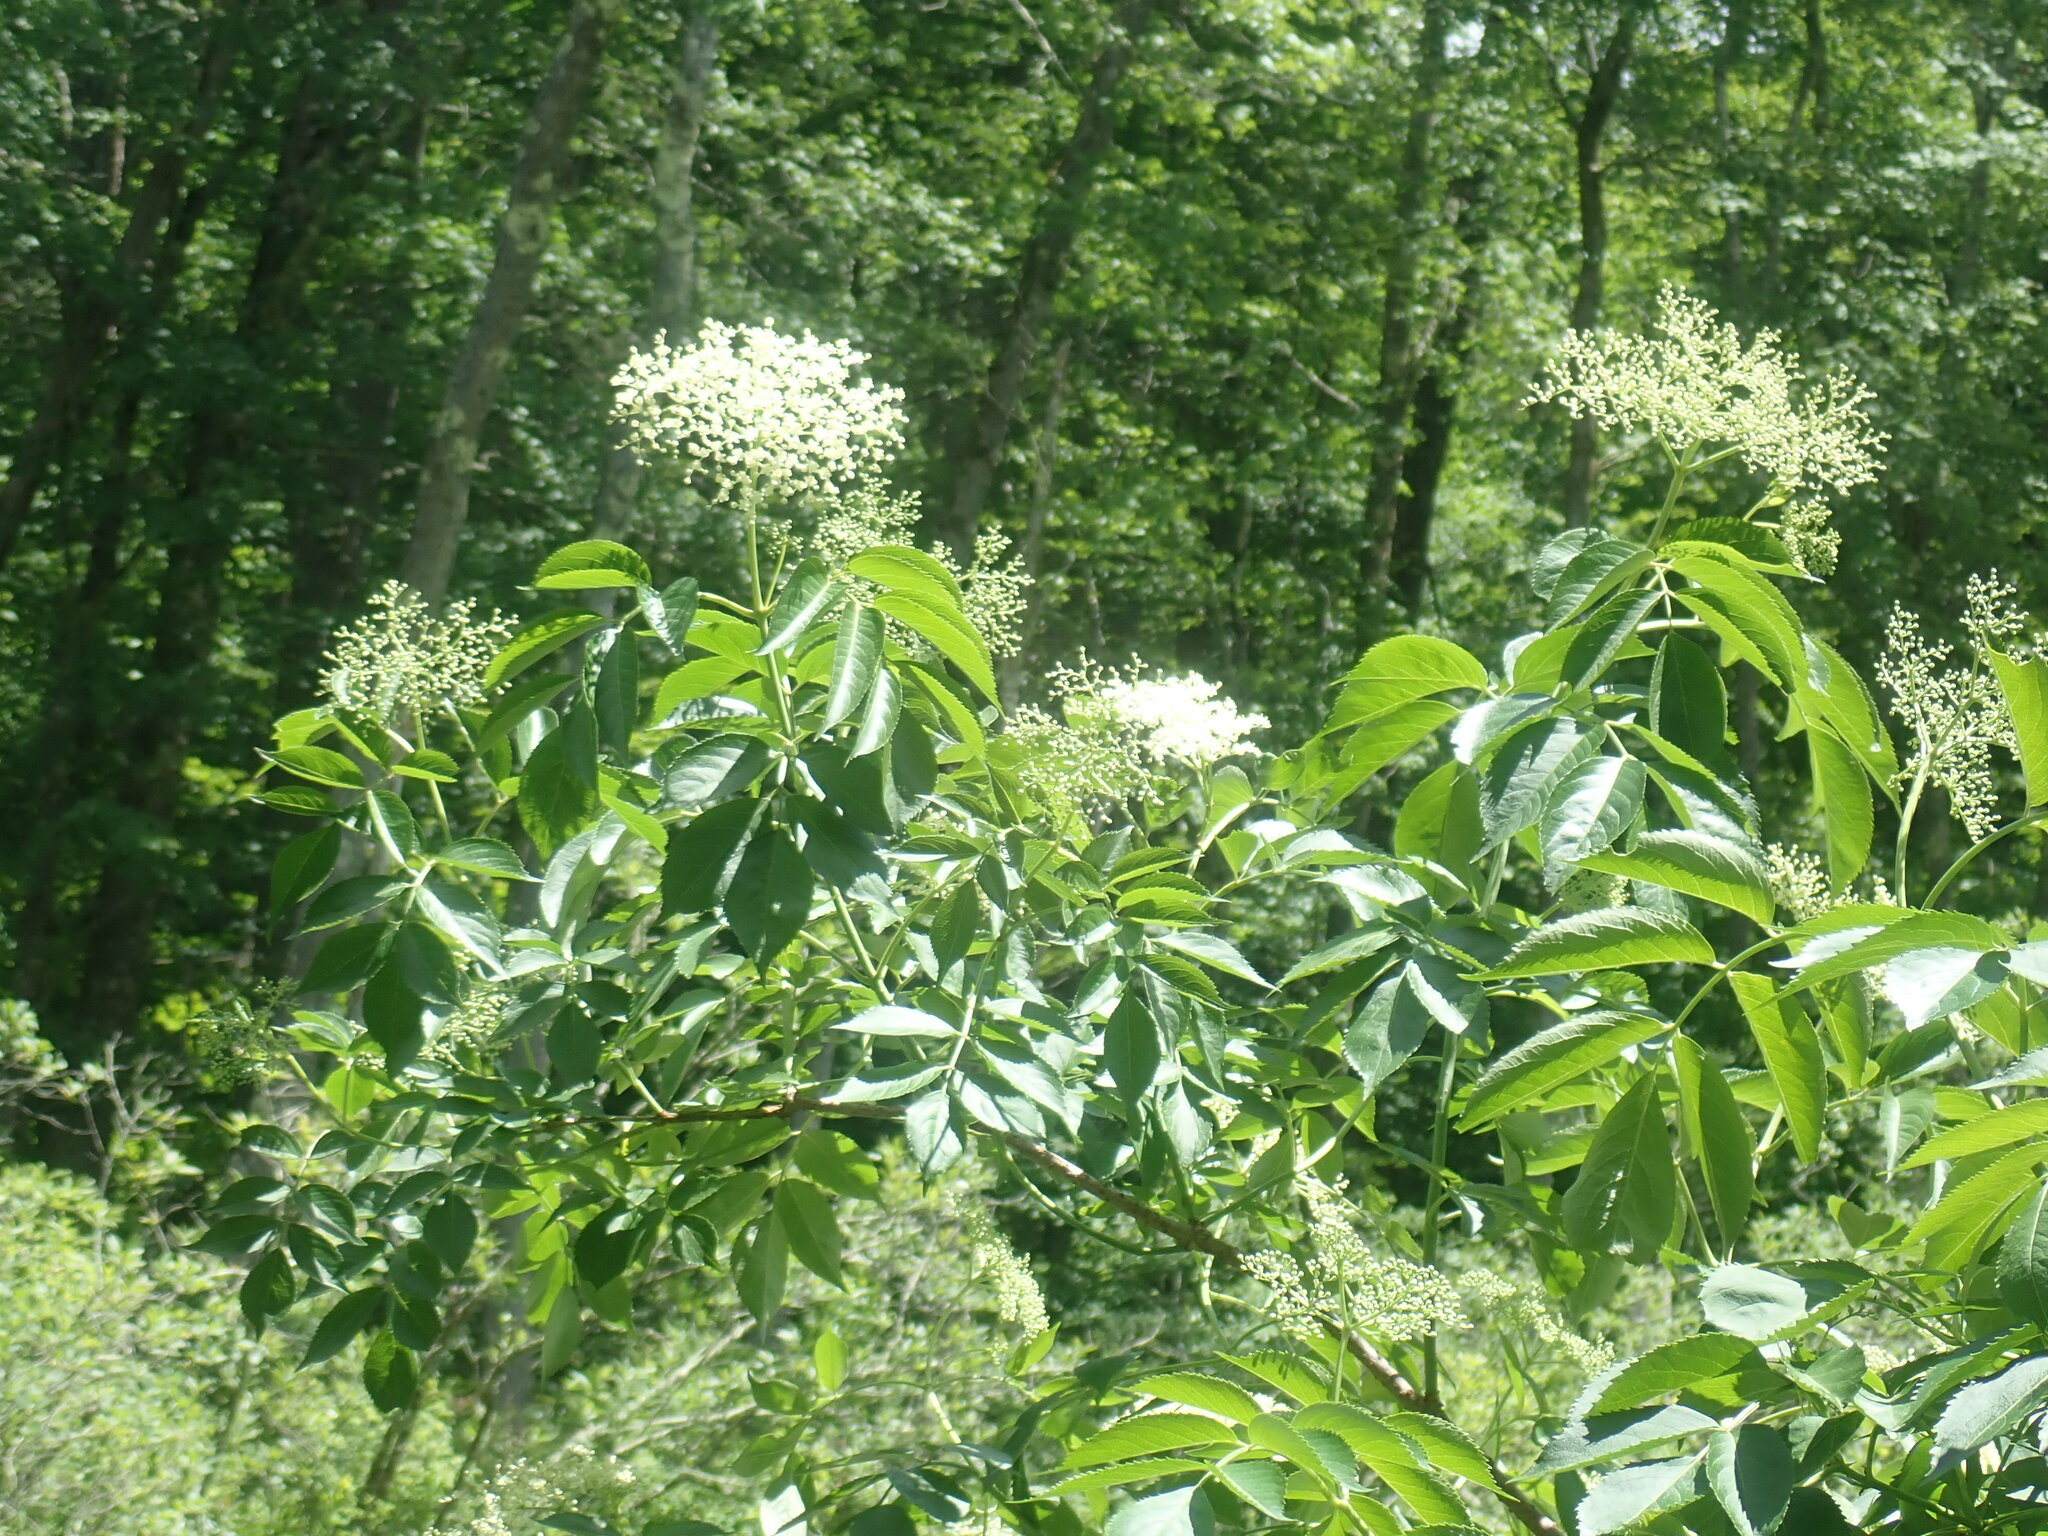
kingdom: Plantae
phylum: Tracheophyta
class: Magnoliopsida
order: Dipsacales
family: Viburnaceae
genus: Sambucus
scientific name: Sambucus canadensis
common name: American elder
